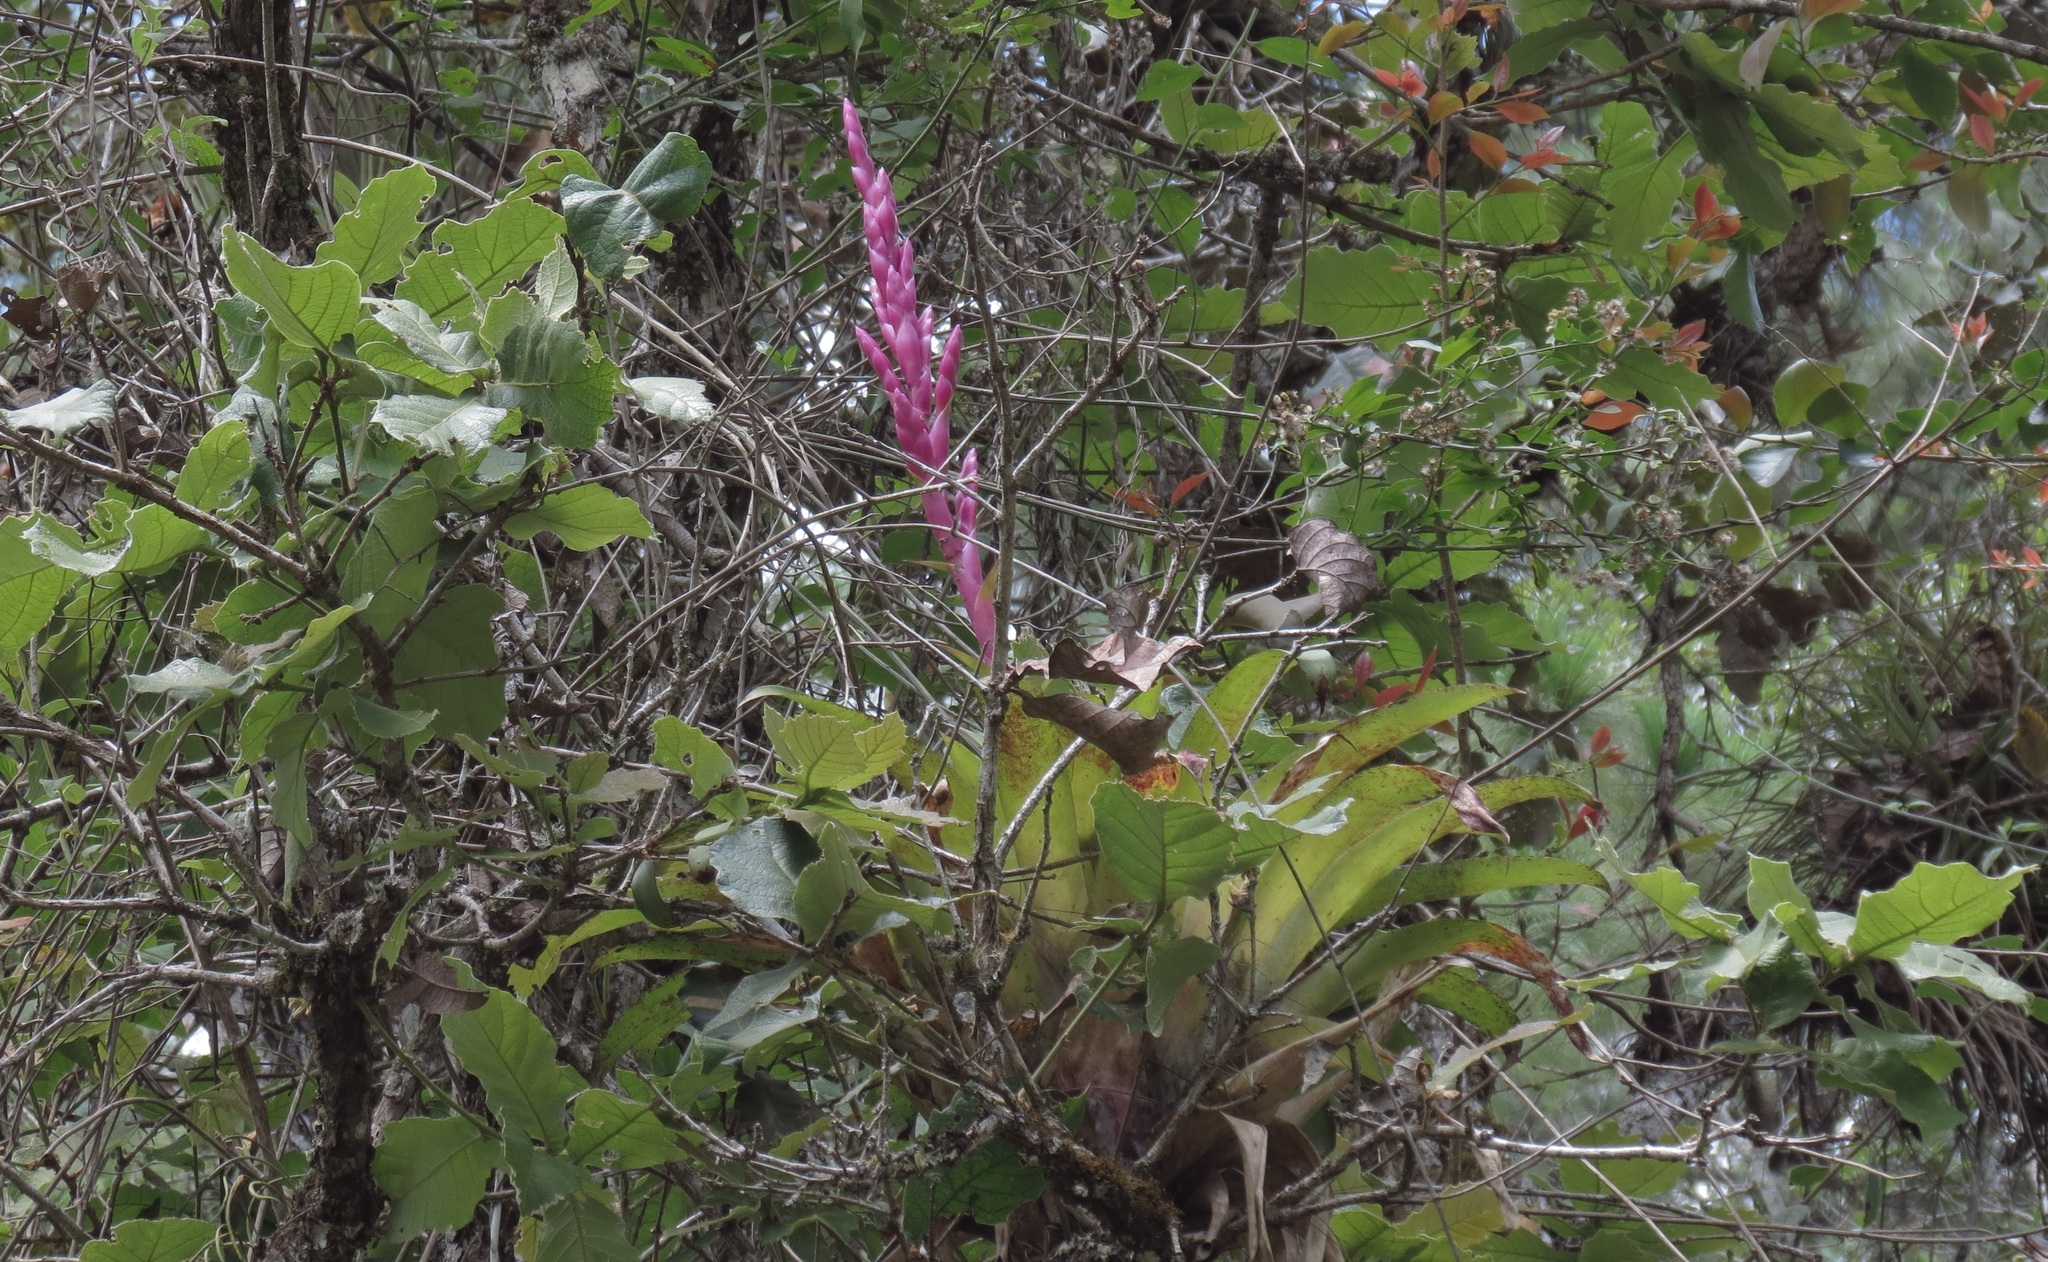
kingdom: Plantae
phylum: Tracheophyta
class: Liliopsida
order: Poales
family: Bromeliaceae
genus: Tillandsia
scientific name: Tillandsia lucida
